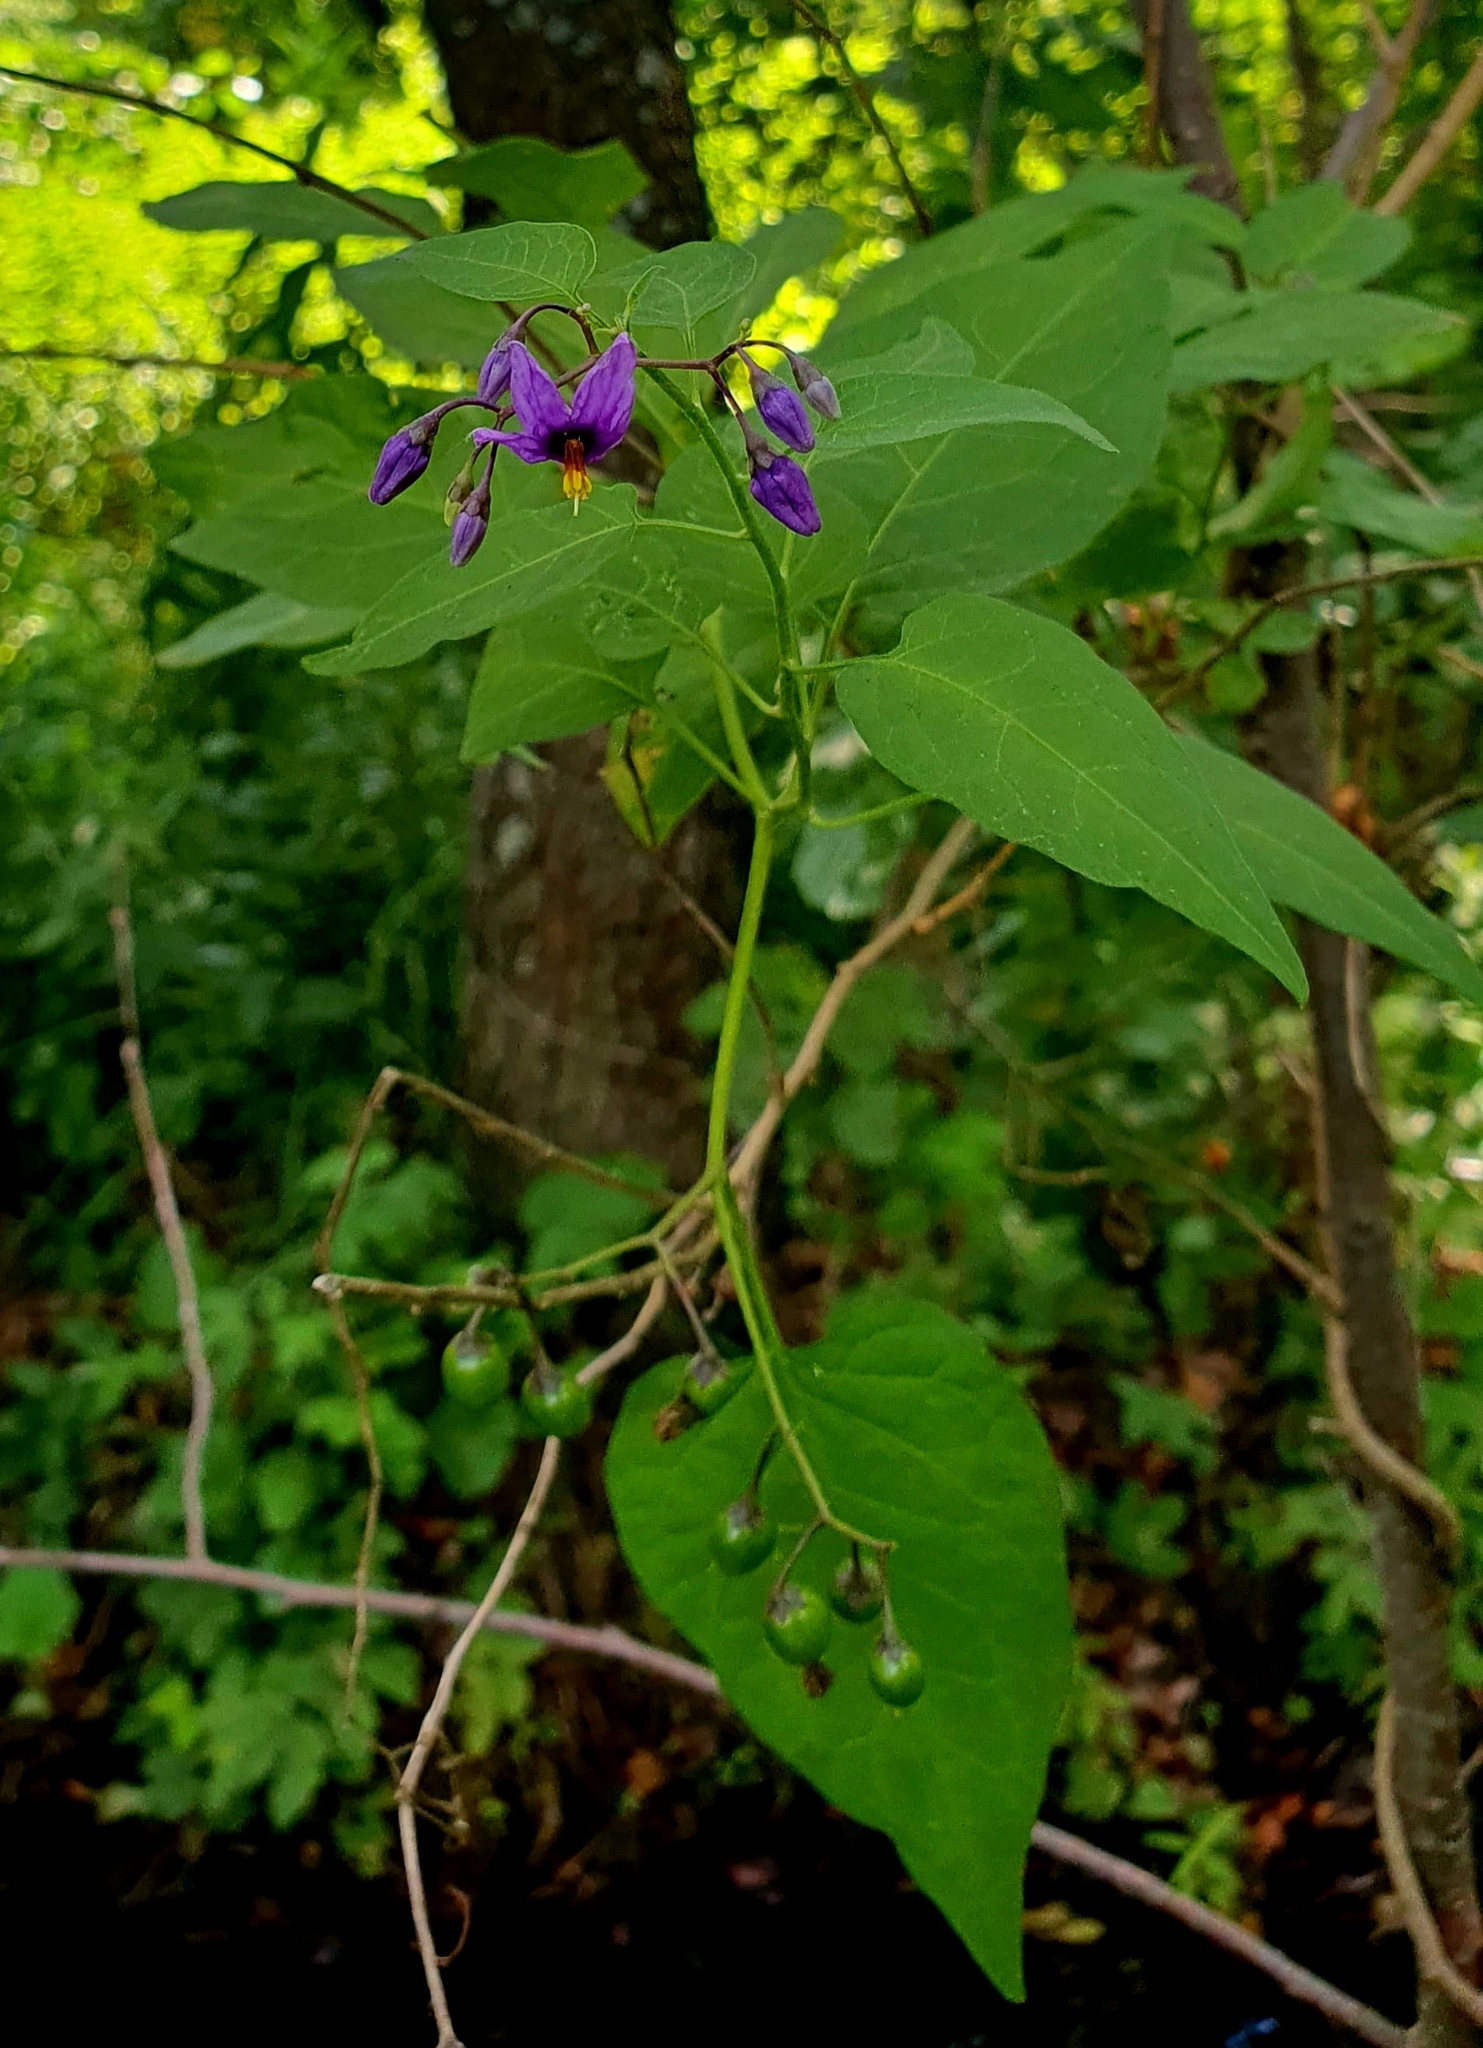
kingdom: Plantae
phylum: Tracheophyta
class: Magnoliopsida
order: Solanales
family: Solanaceae
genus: Solanum
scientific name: Solanum dulcamara
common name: Climbing nightshade
